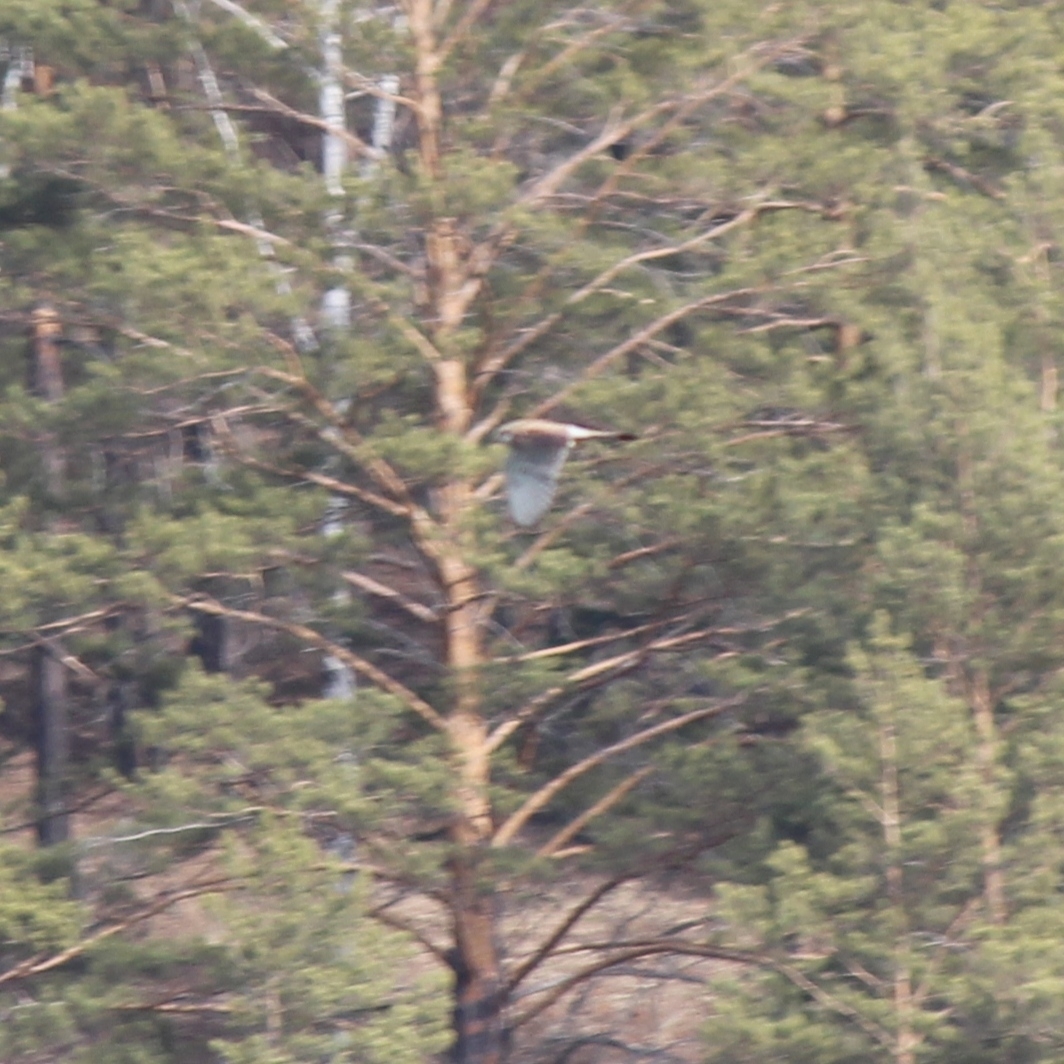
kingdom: Animalia
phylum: Chordata
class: Aves
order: Falconiformes
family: Falconidae
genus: Falco
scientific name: Falco tinnunculus
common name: Common kestrel
